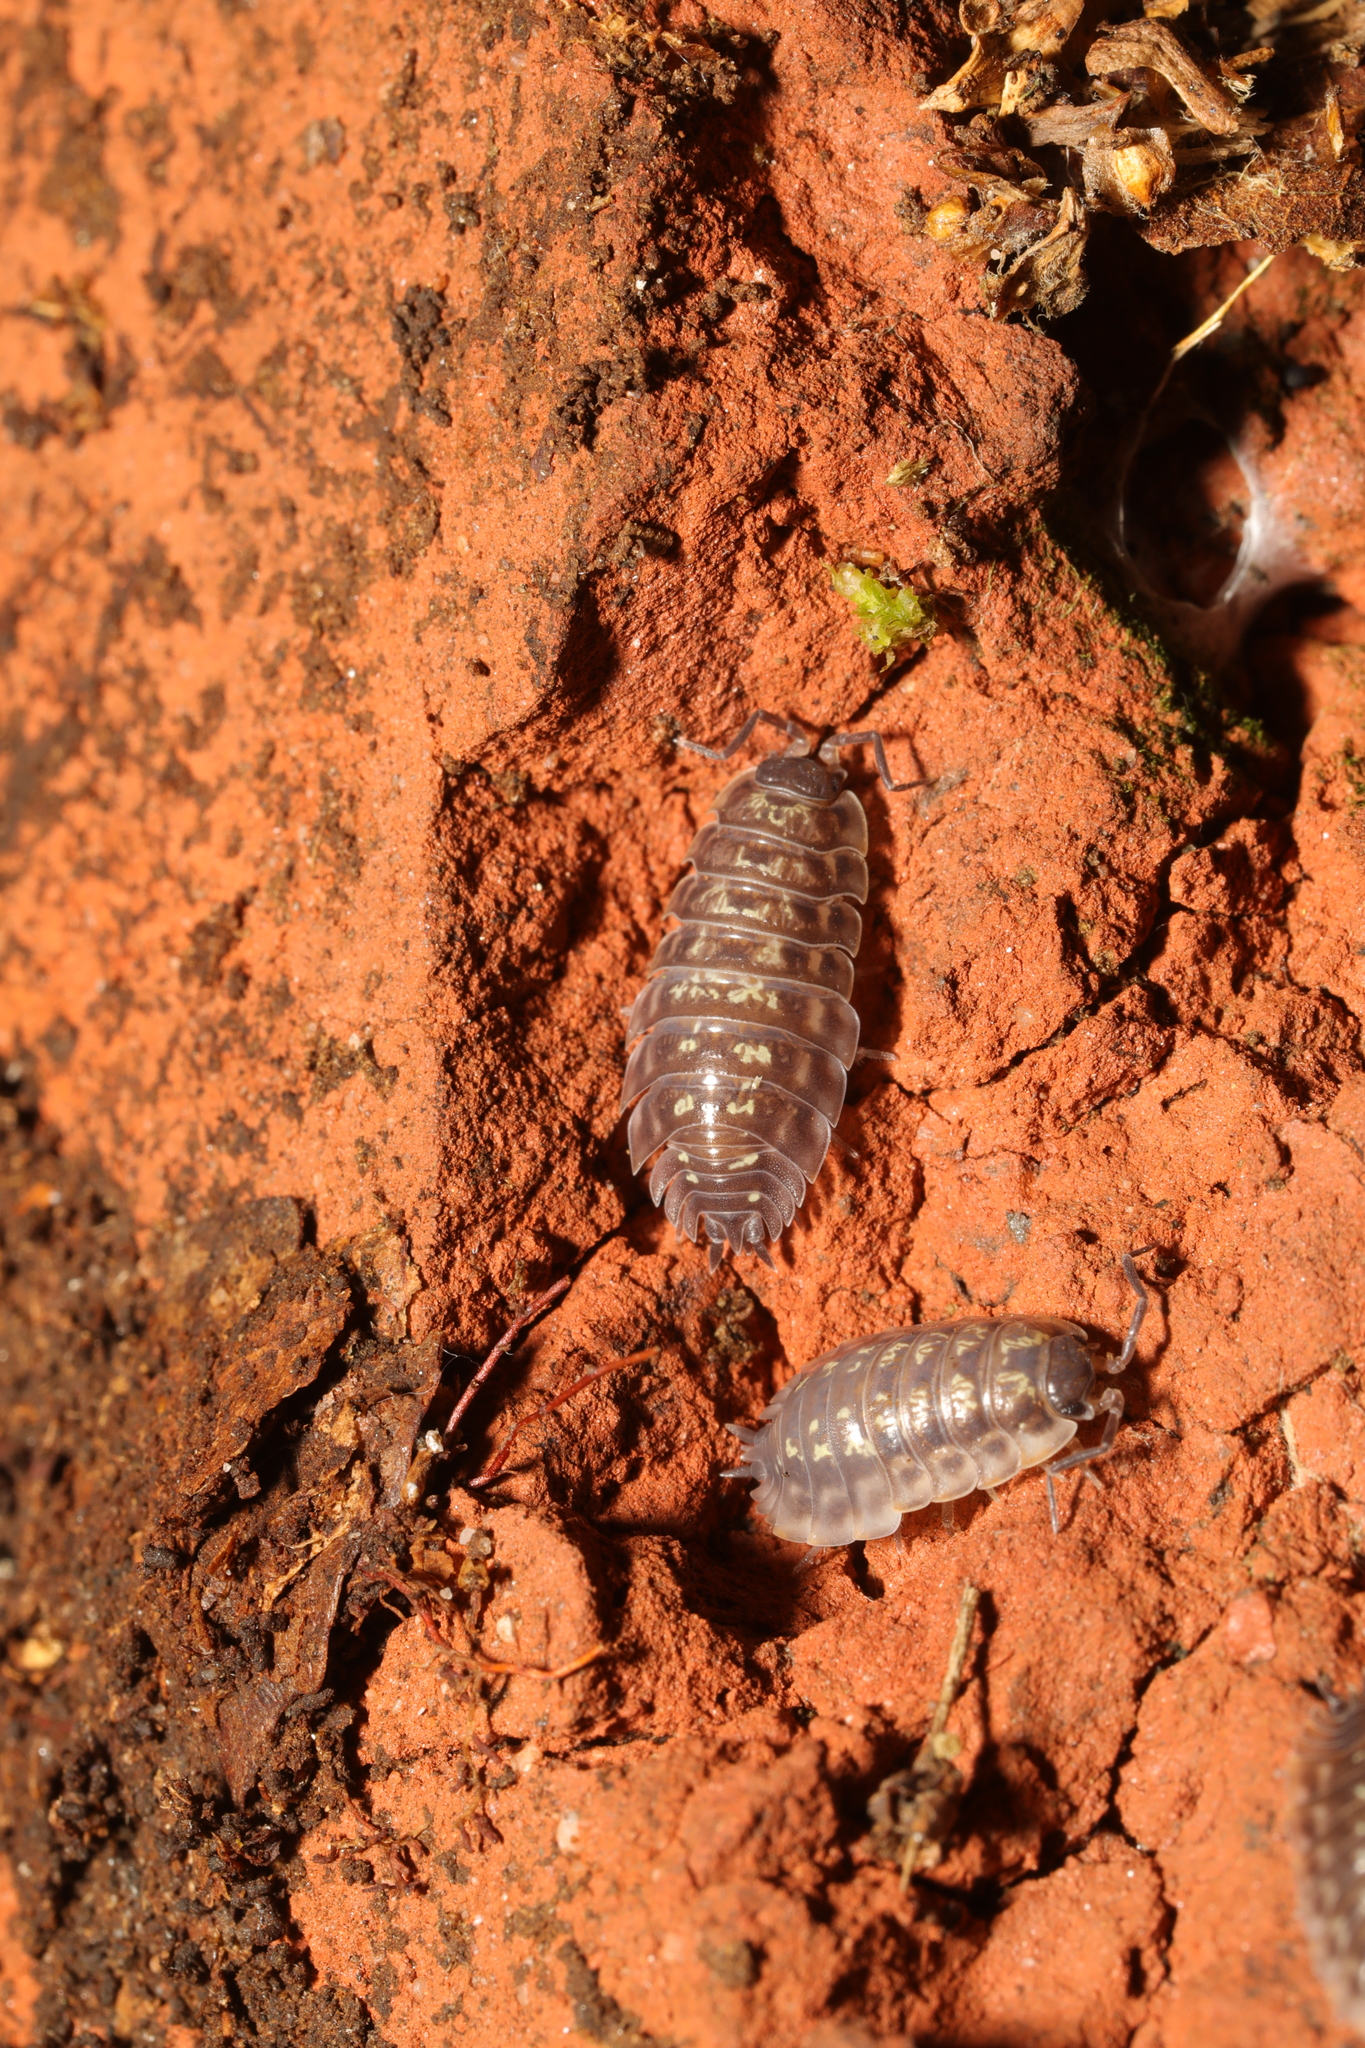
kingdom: Animalia
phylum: Arthropoda
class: Malacostraca
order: Isopoda
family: Oniscidae
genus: Oniscus
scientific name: Oniscus asellus
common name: Common shiny woodlouse
